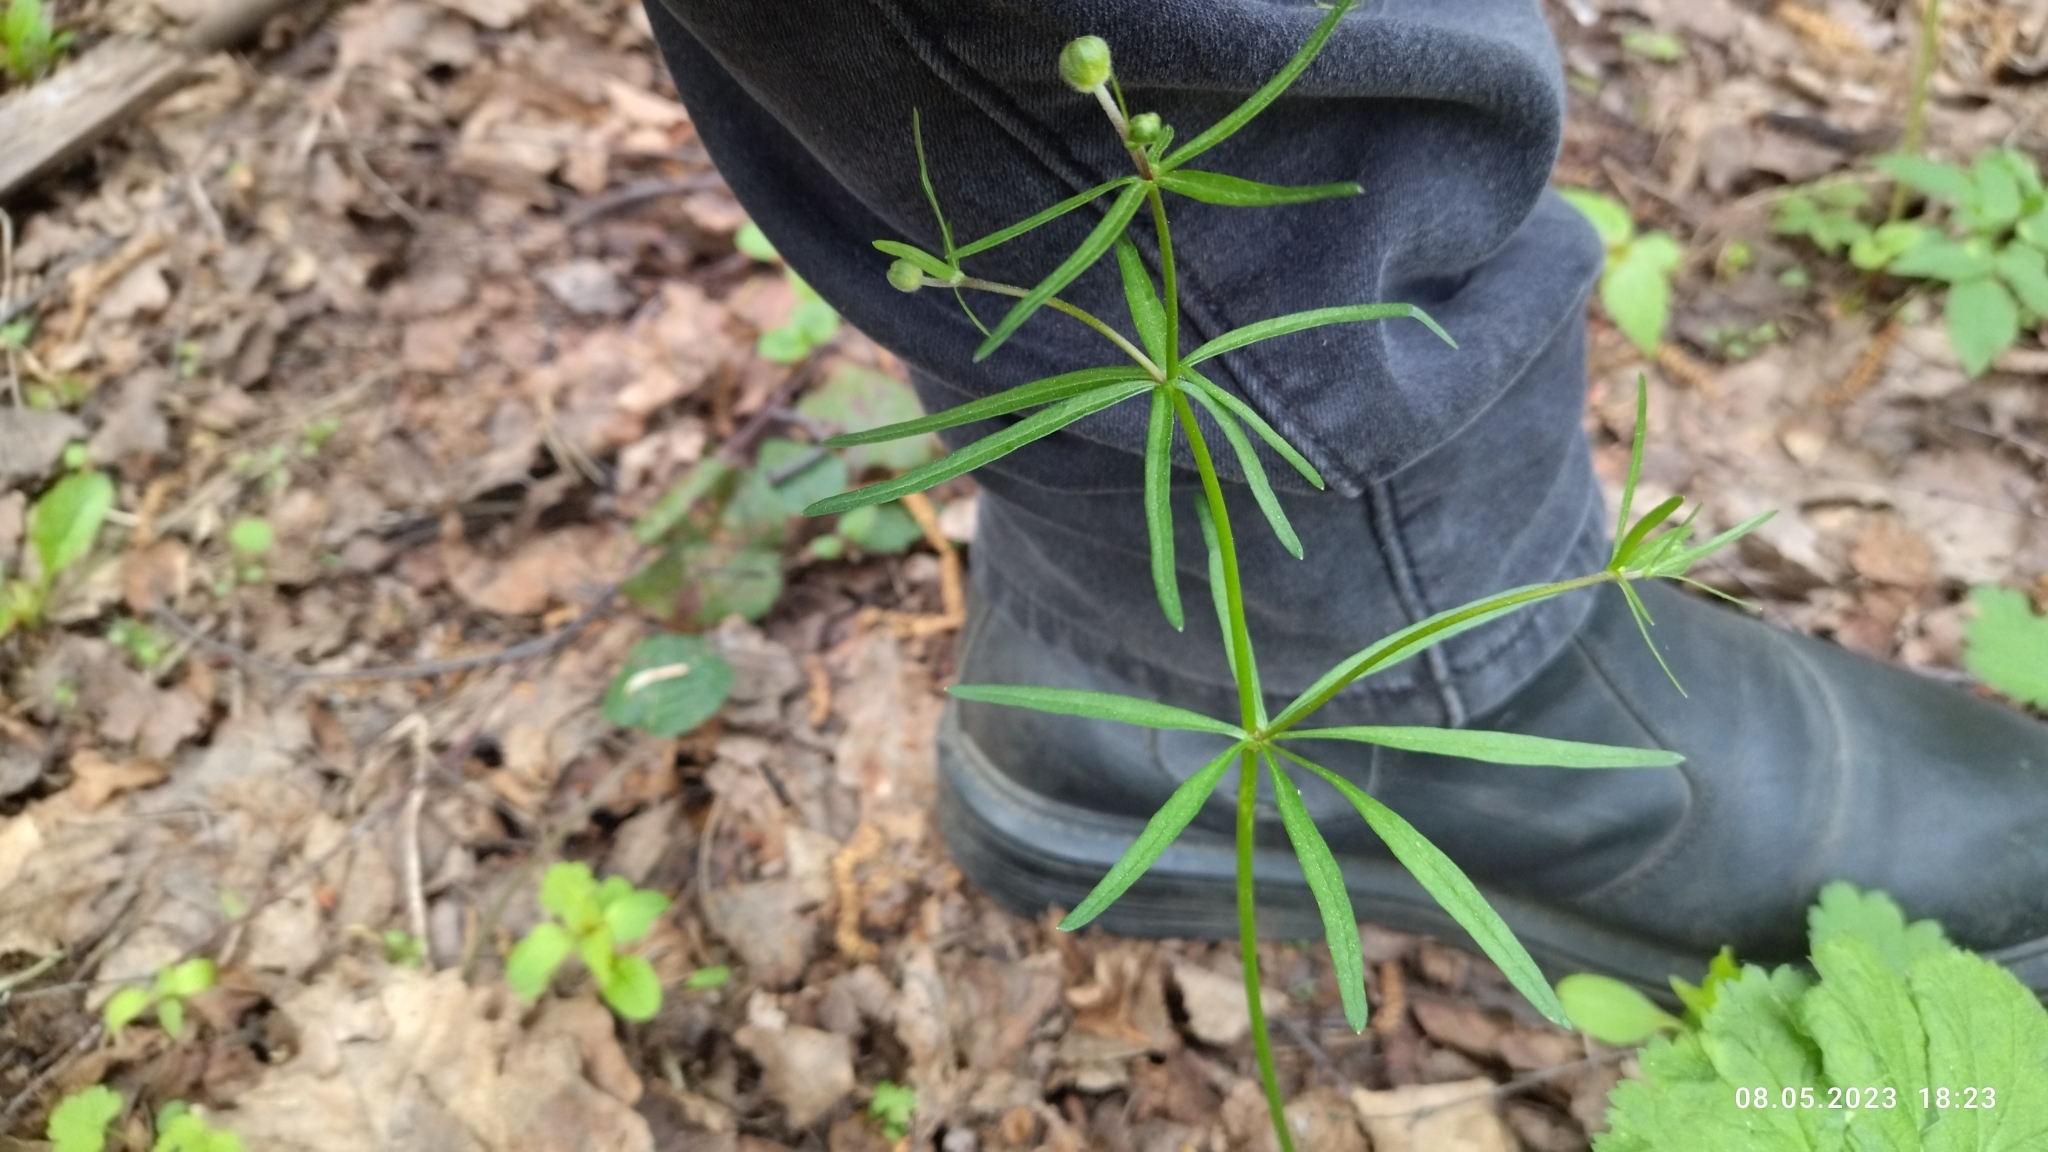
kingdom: Plantae
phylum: Tracheophyta
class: Magnoliopsida
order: Ranunculales
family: Ranunculaceae
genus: Ranunculus
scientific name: Ranunculus auricomus
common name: Goldilocks buttercup
